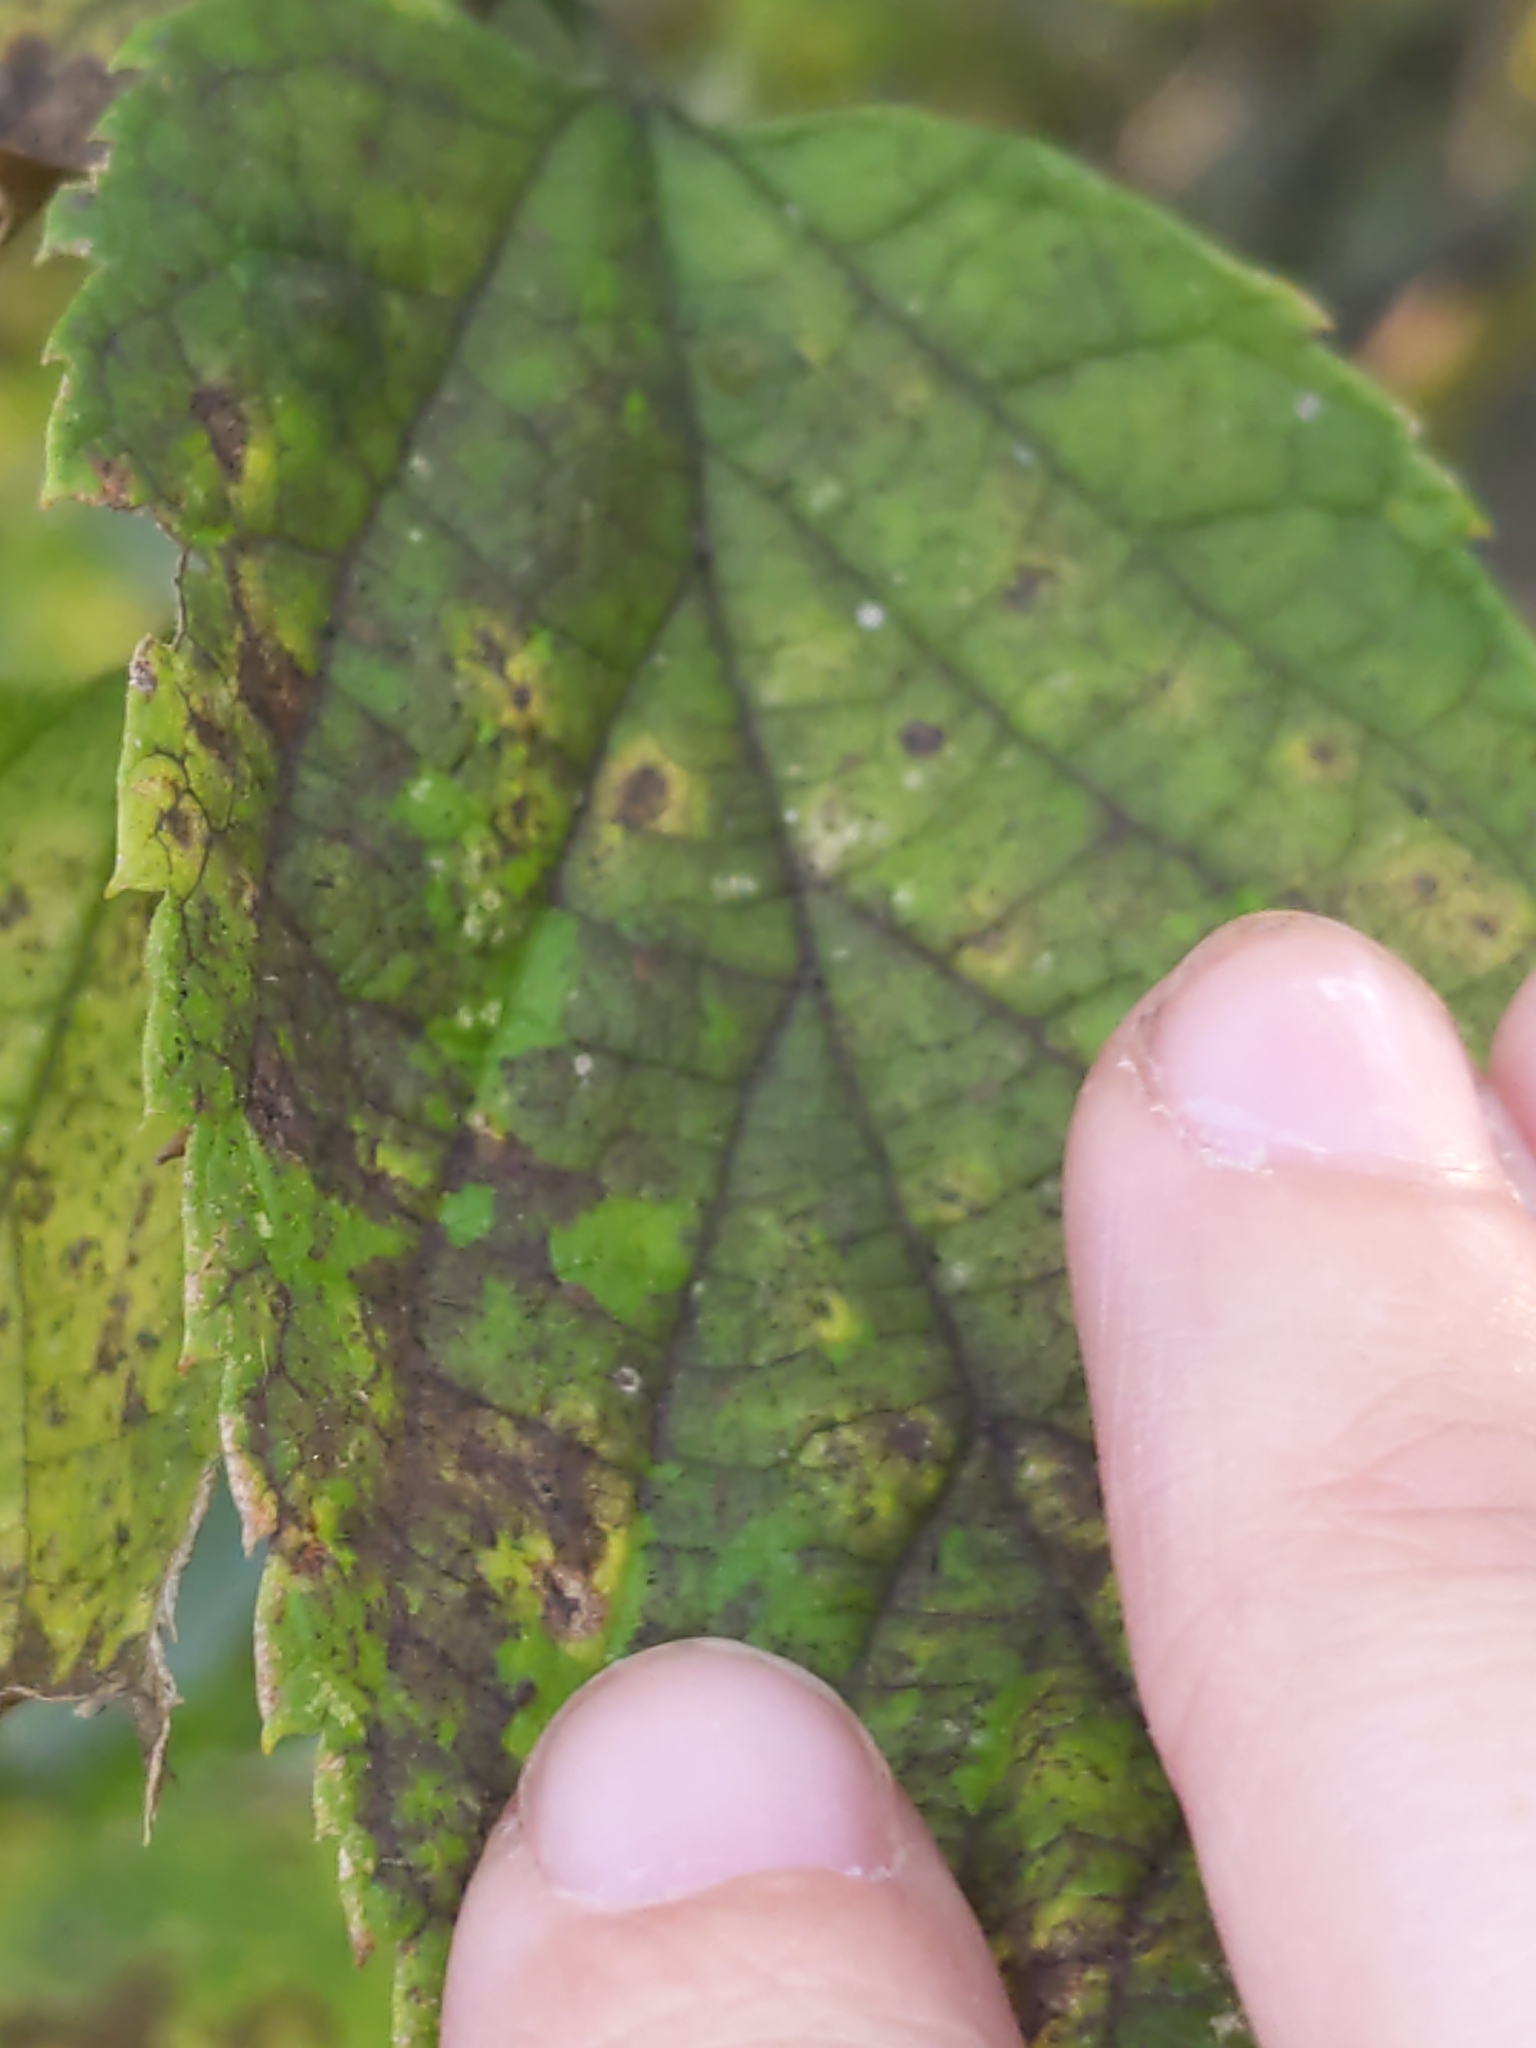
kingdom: Animalia
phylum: Arthropoda
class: Insecta
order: Diptera
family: Cecidomyiidae
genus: Celticecis
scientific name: Celticecis spiniformis
